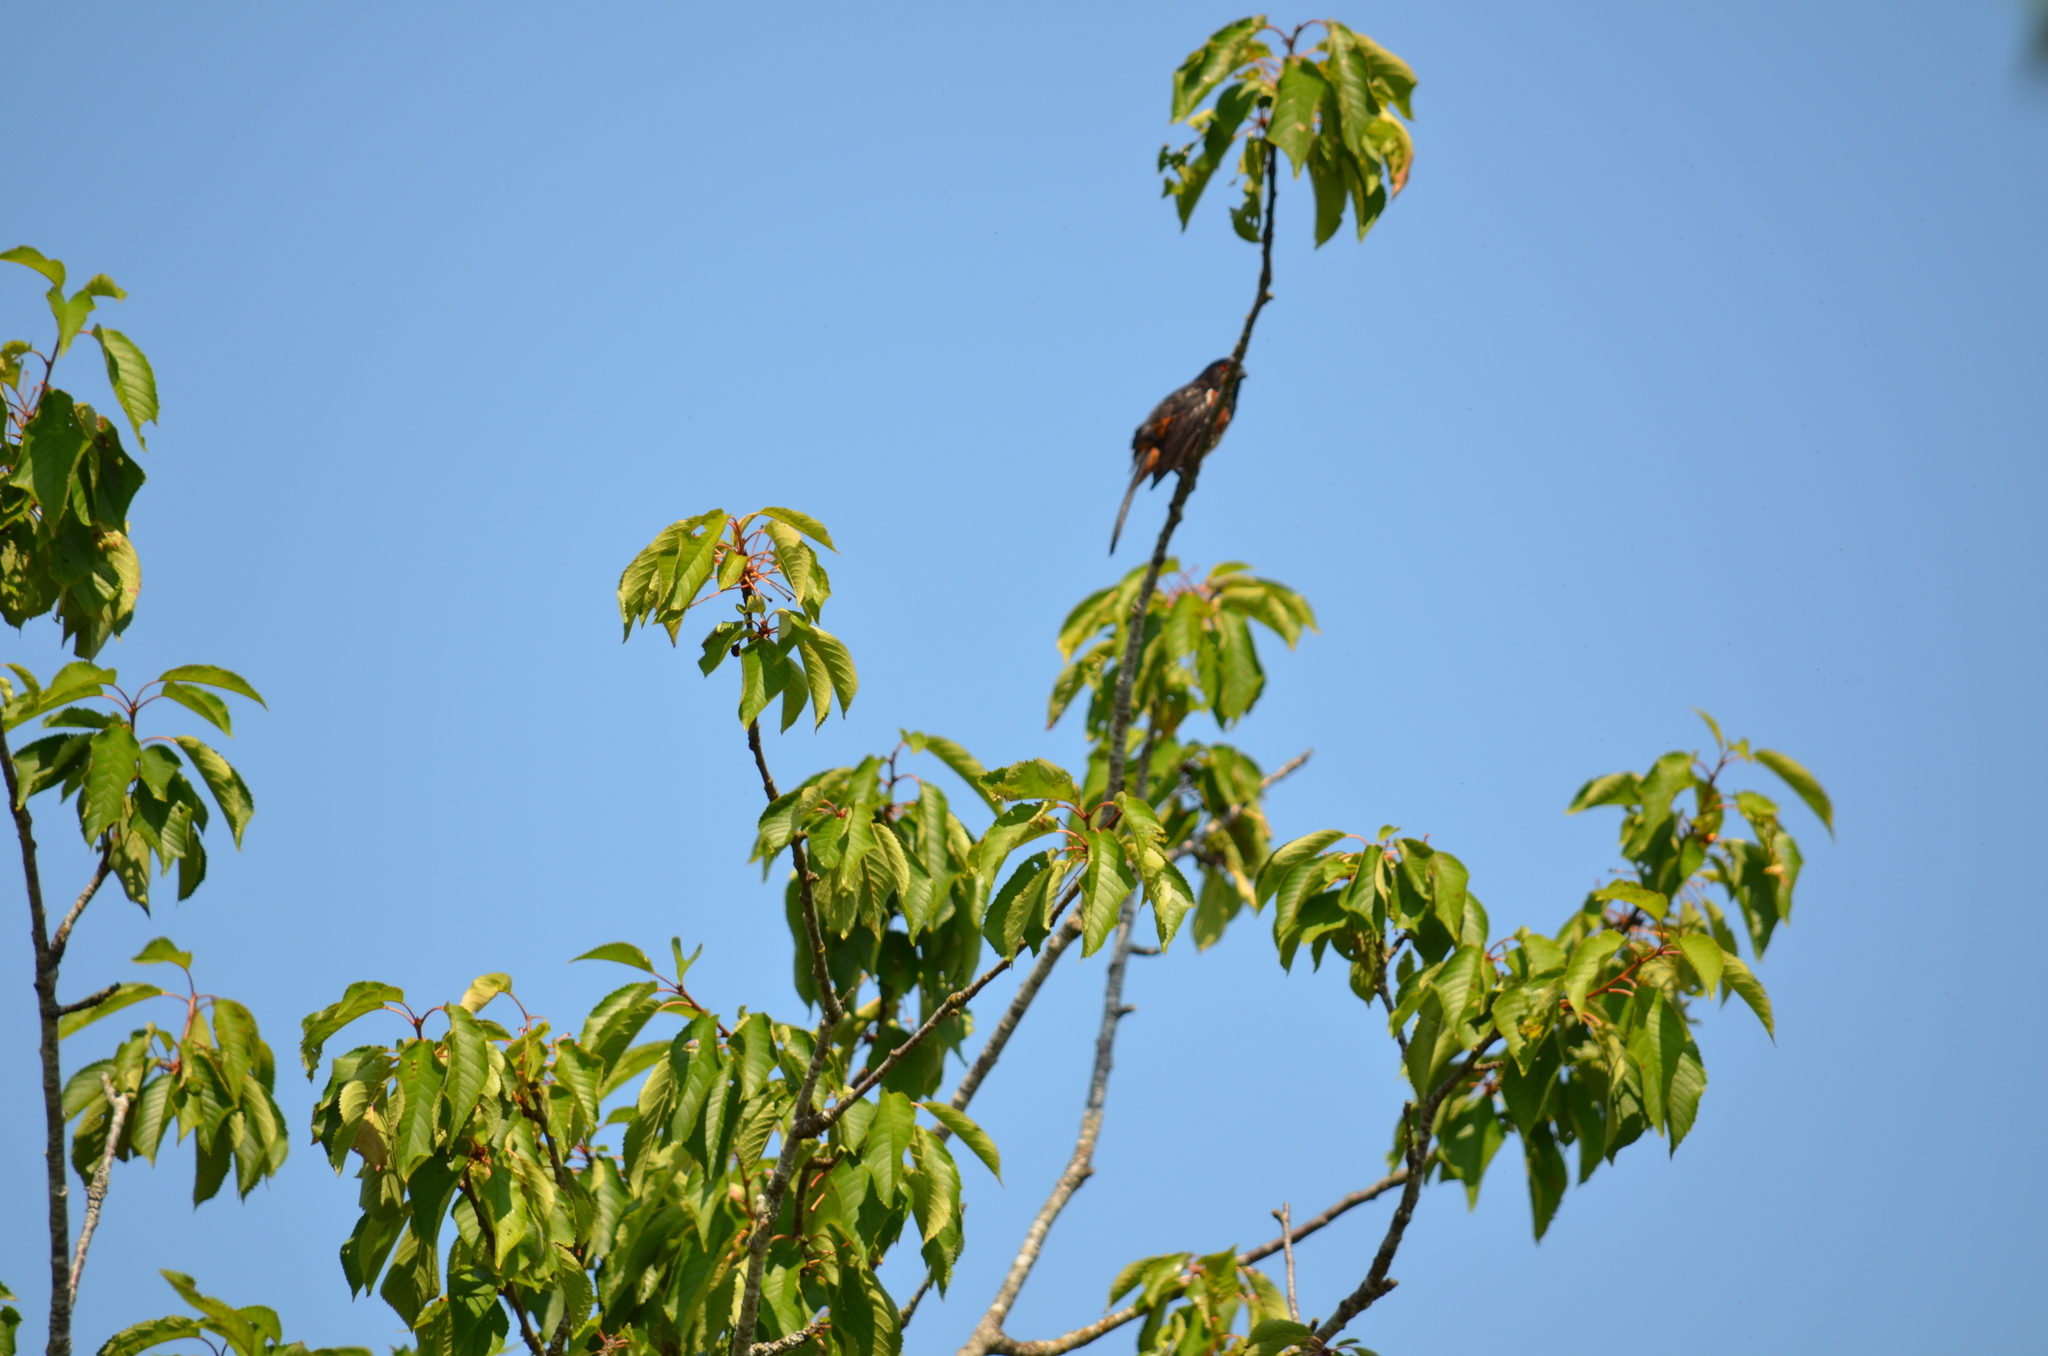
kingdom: Animalia
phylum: Chordata
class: Aves
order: Passeriformes
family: Passerellidae
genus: Pipilo
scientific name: Pipilo maculatus
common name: Spotted towhee
